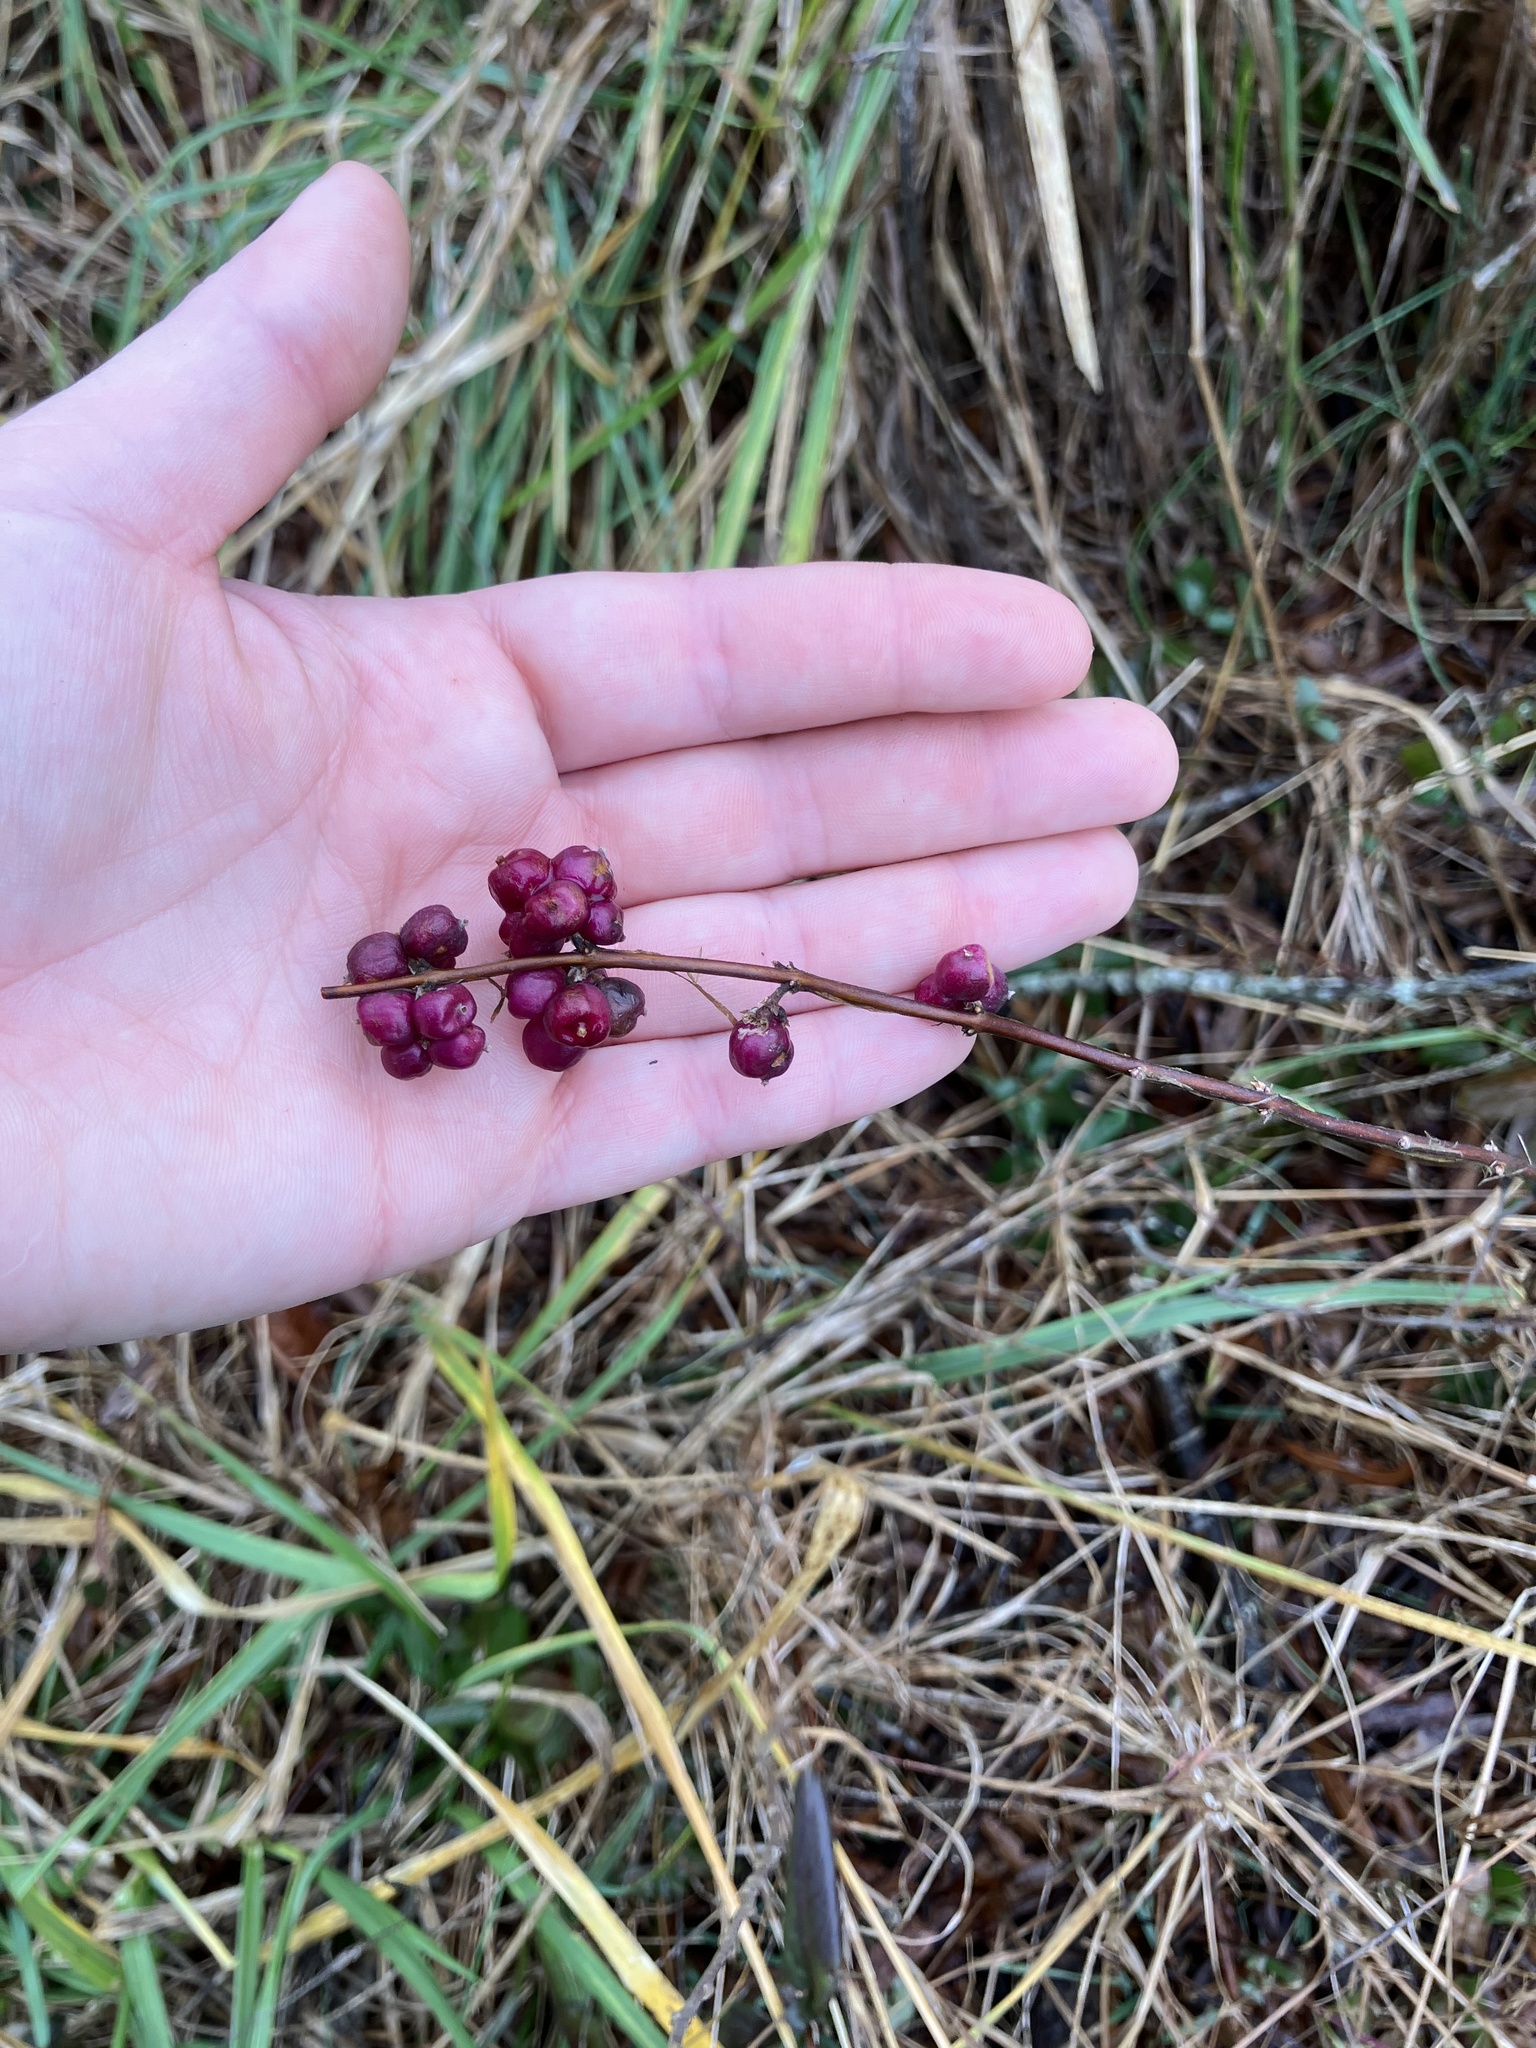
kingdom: Plantae
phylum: Tracheophyta
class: Magnoliopsida
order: Dipsacales
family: Caprifoliaceae
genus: Symphoricarpos
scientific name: Symphoricarpos orbiculatus
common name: Coralberry
